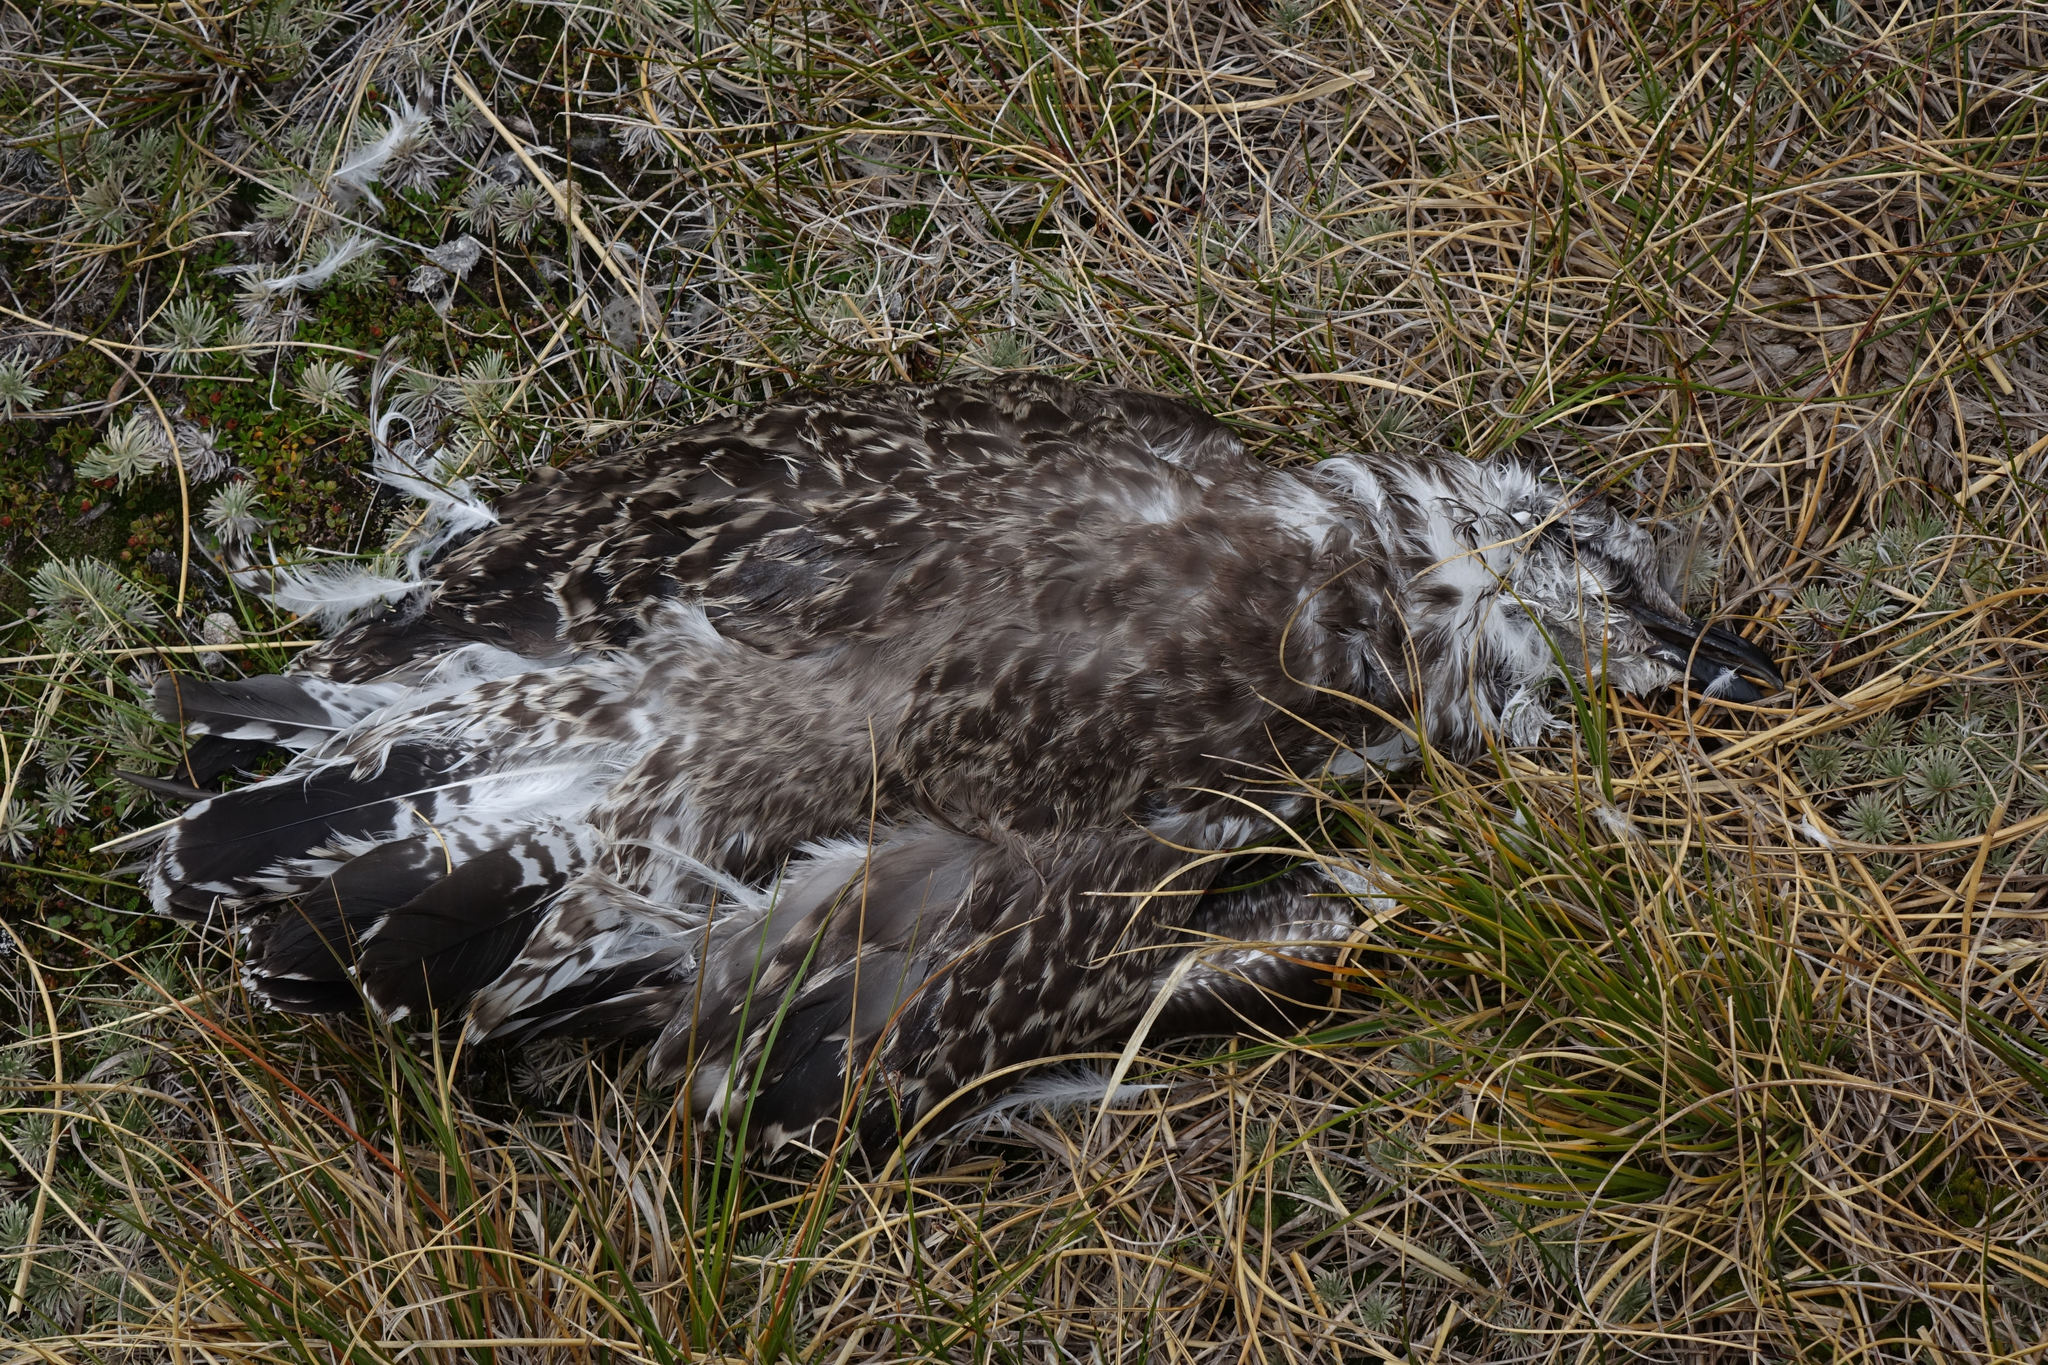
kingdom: Animalia
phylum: Chordata
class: Aves
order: Charadriiformes
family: Laridae
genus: Larus
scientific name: Larus dominicanus
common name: Kelp gull
